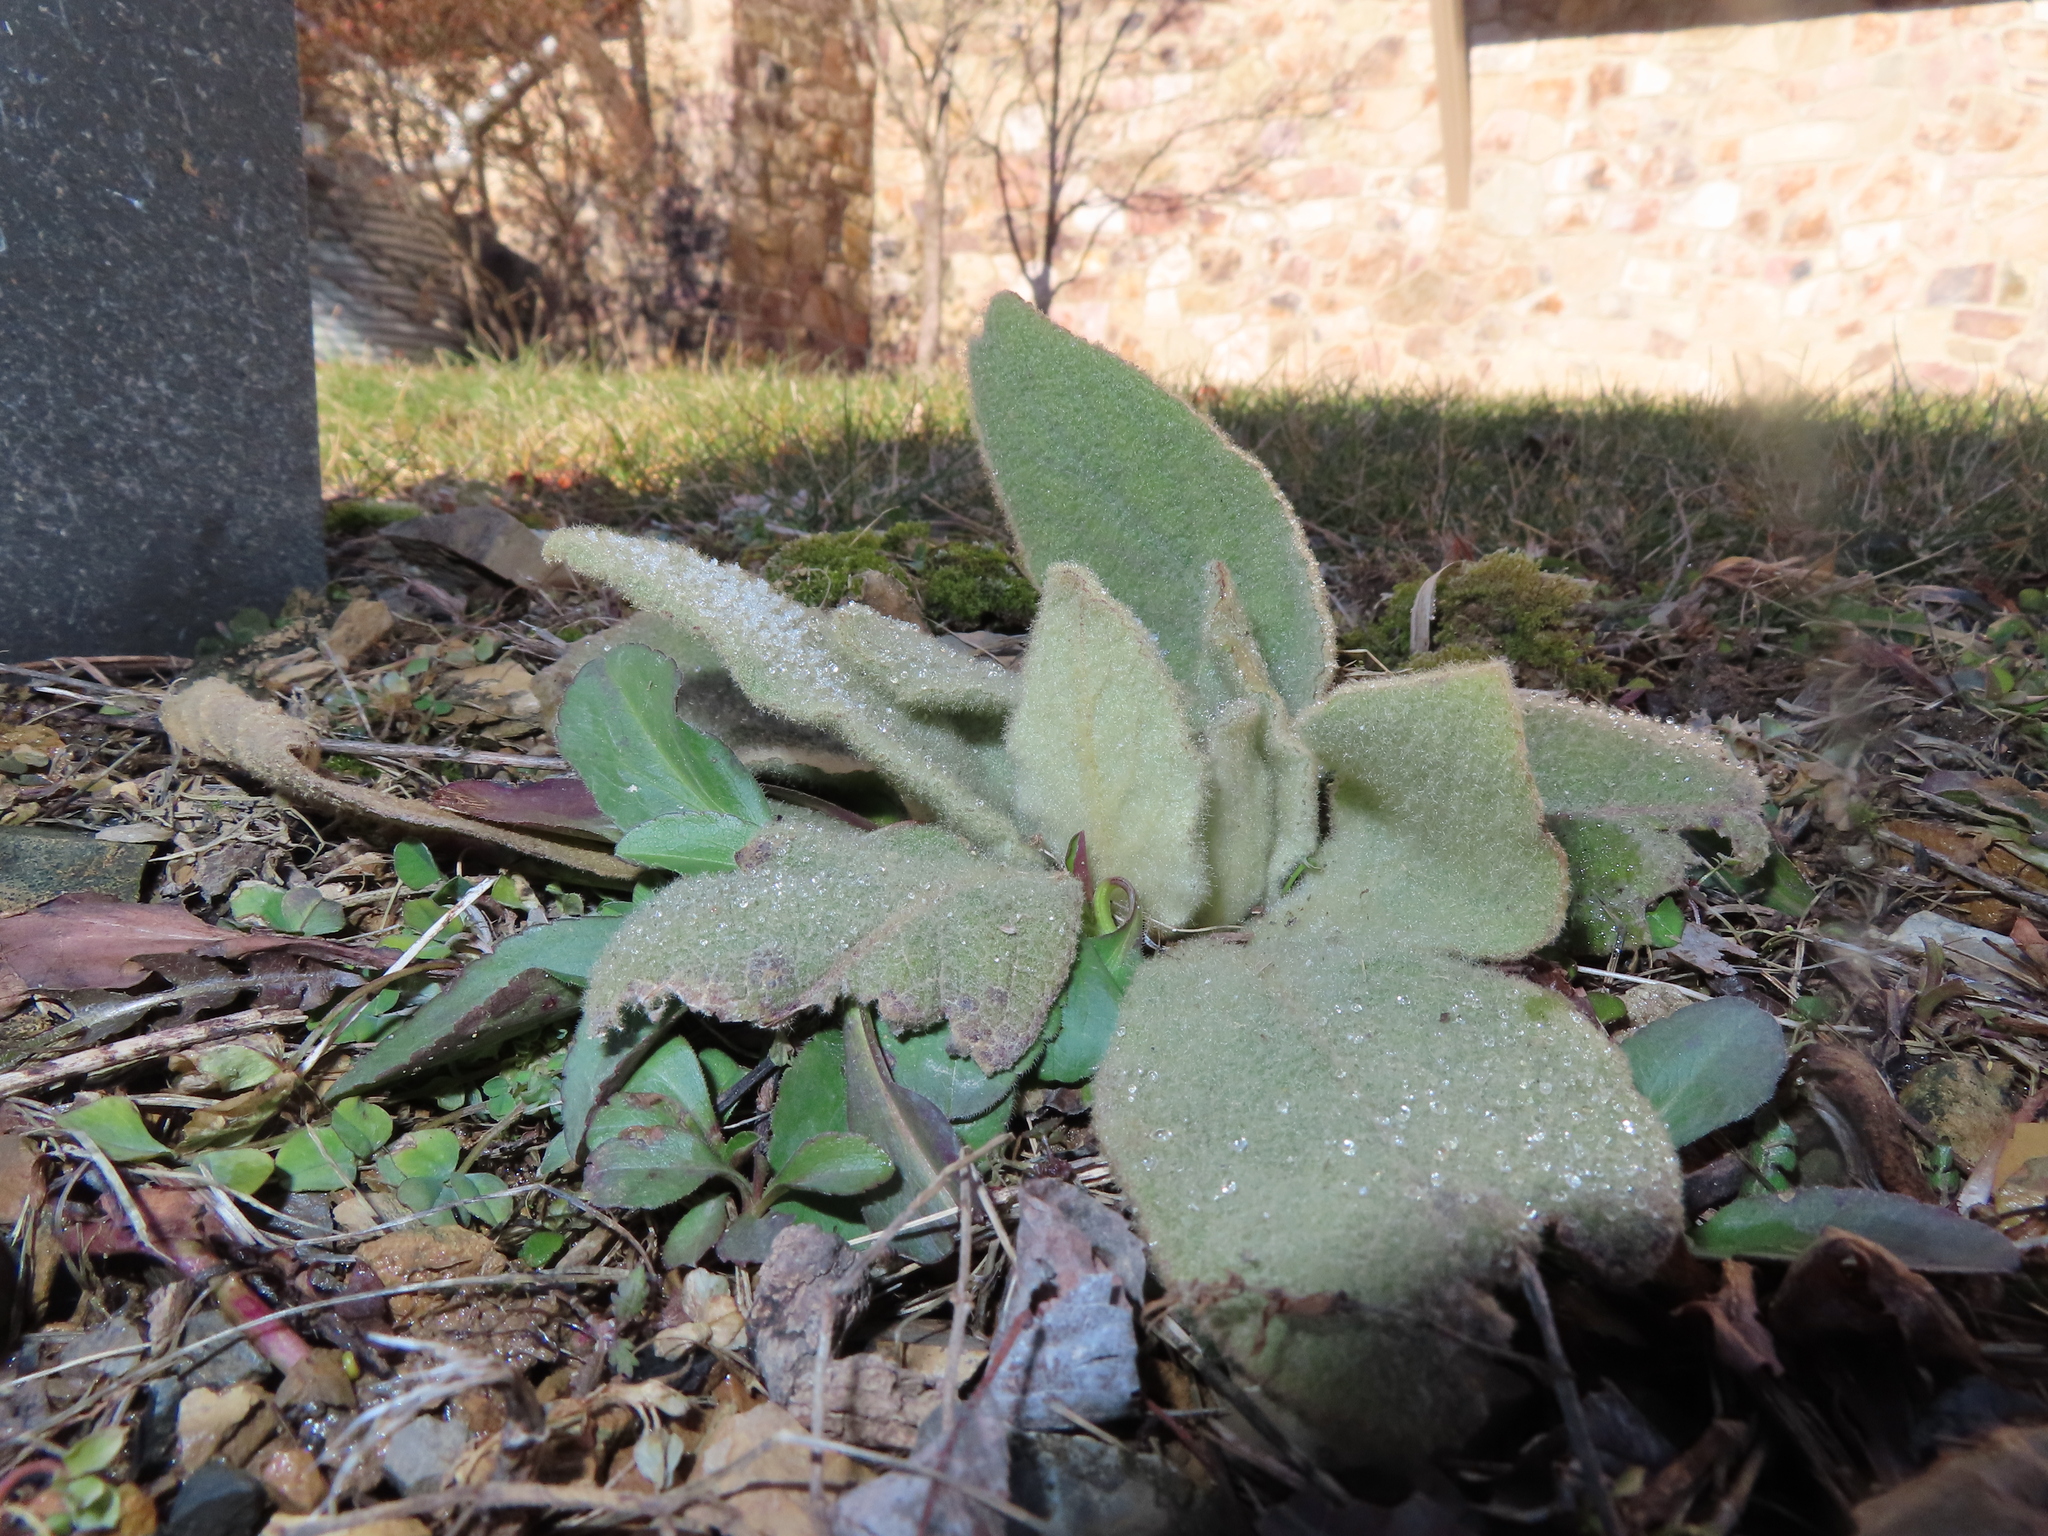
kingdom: Plantae
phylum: Tracheophyta
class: Magnoliopsida
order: Lamiales
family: Scrophulariaceae
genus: Verbascum
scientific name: Verbascum thapsus
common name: Common mullein
